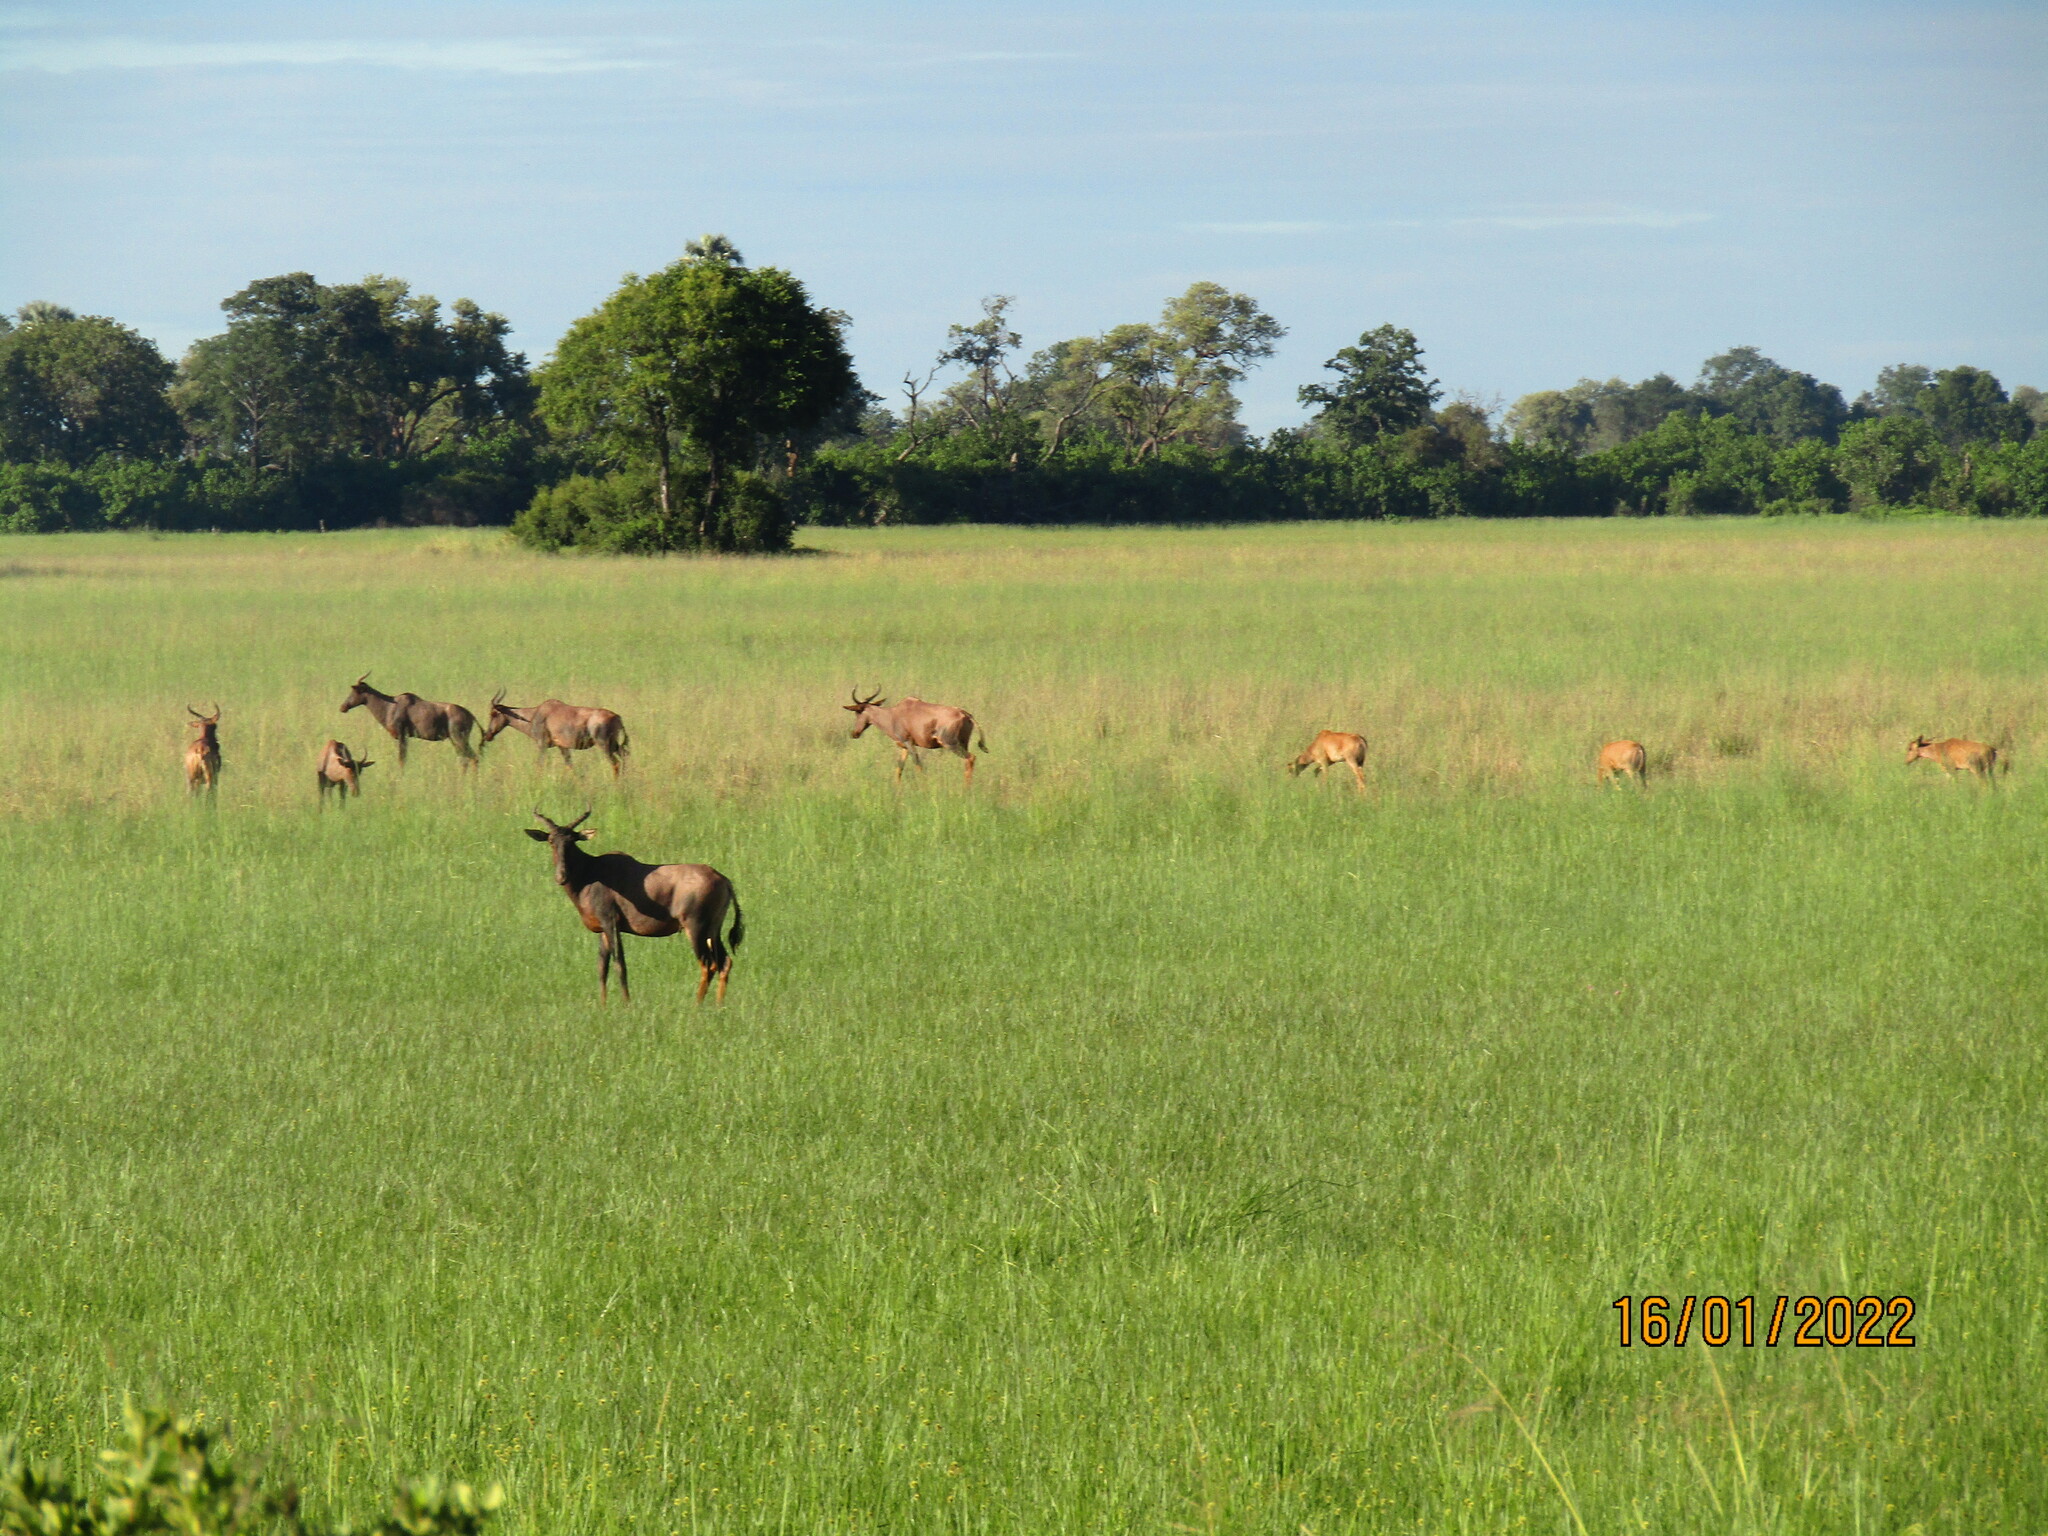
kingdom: Animalia
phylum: Chordata
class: Mammalia
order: Artiodactyla
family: Bovidae
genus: Damaliscus
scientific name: Damaliscus lunatus
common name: Common tsessebe
